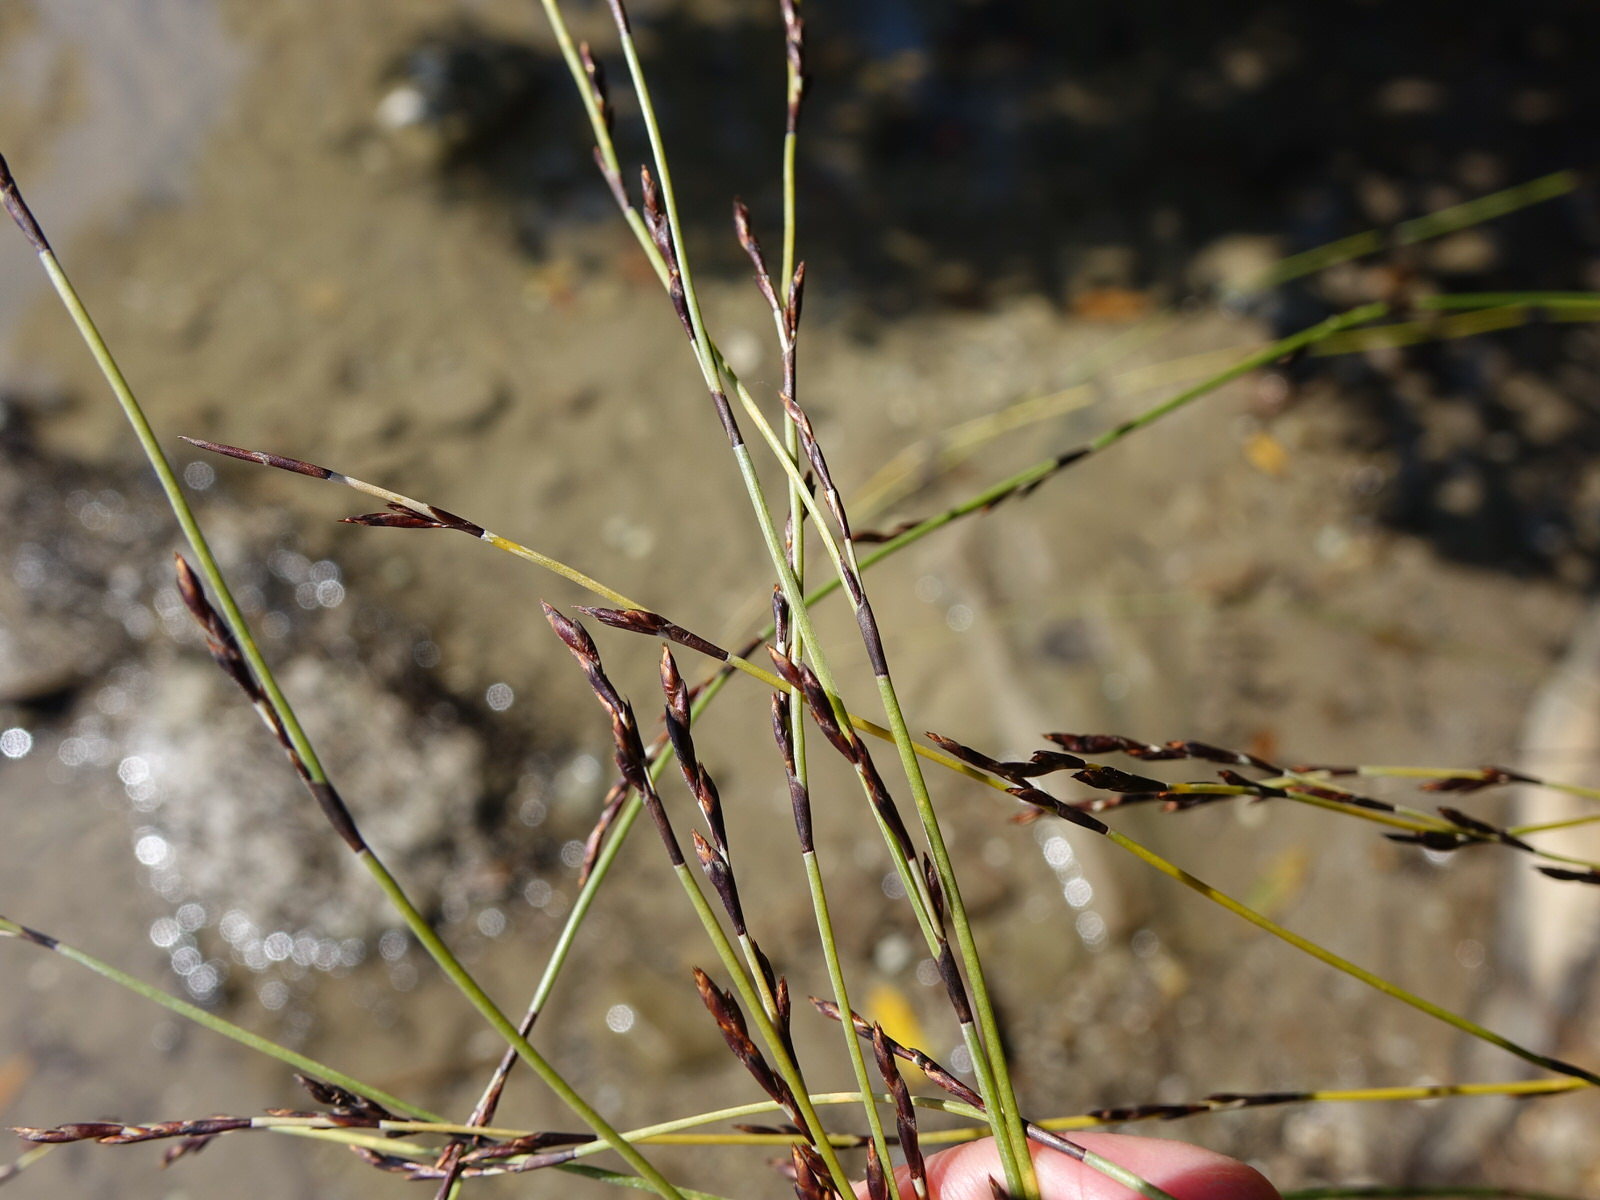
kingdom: Plantae
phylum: Tracheophyta
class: Liliopsida
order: Poales
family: Restionaceae
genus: Apodasmia
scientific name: Apodasmia similis
